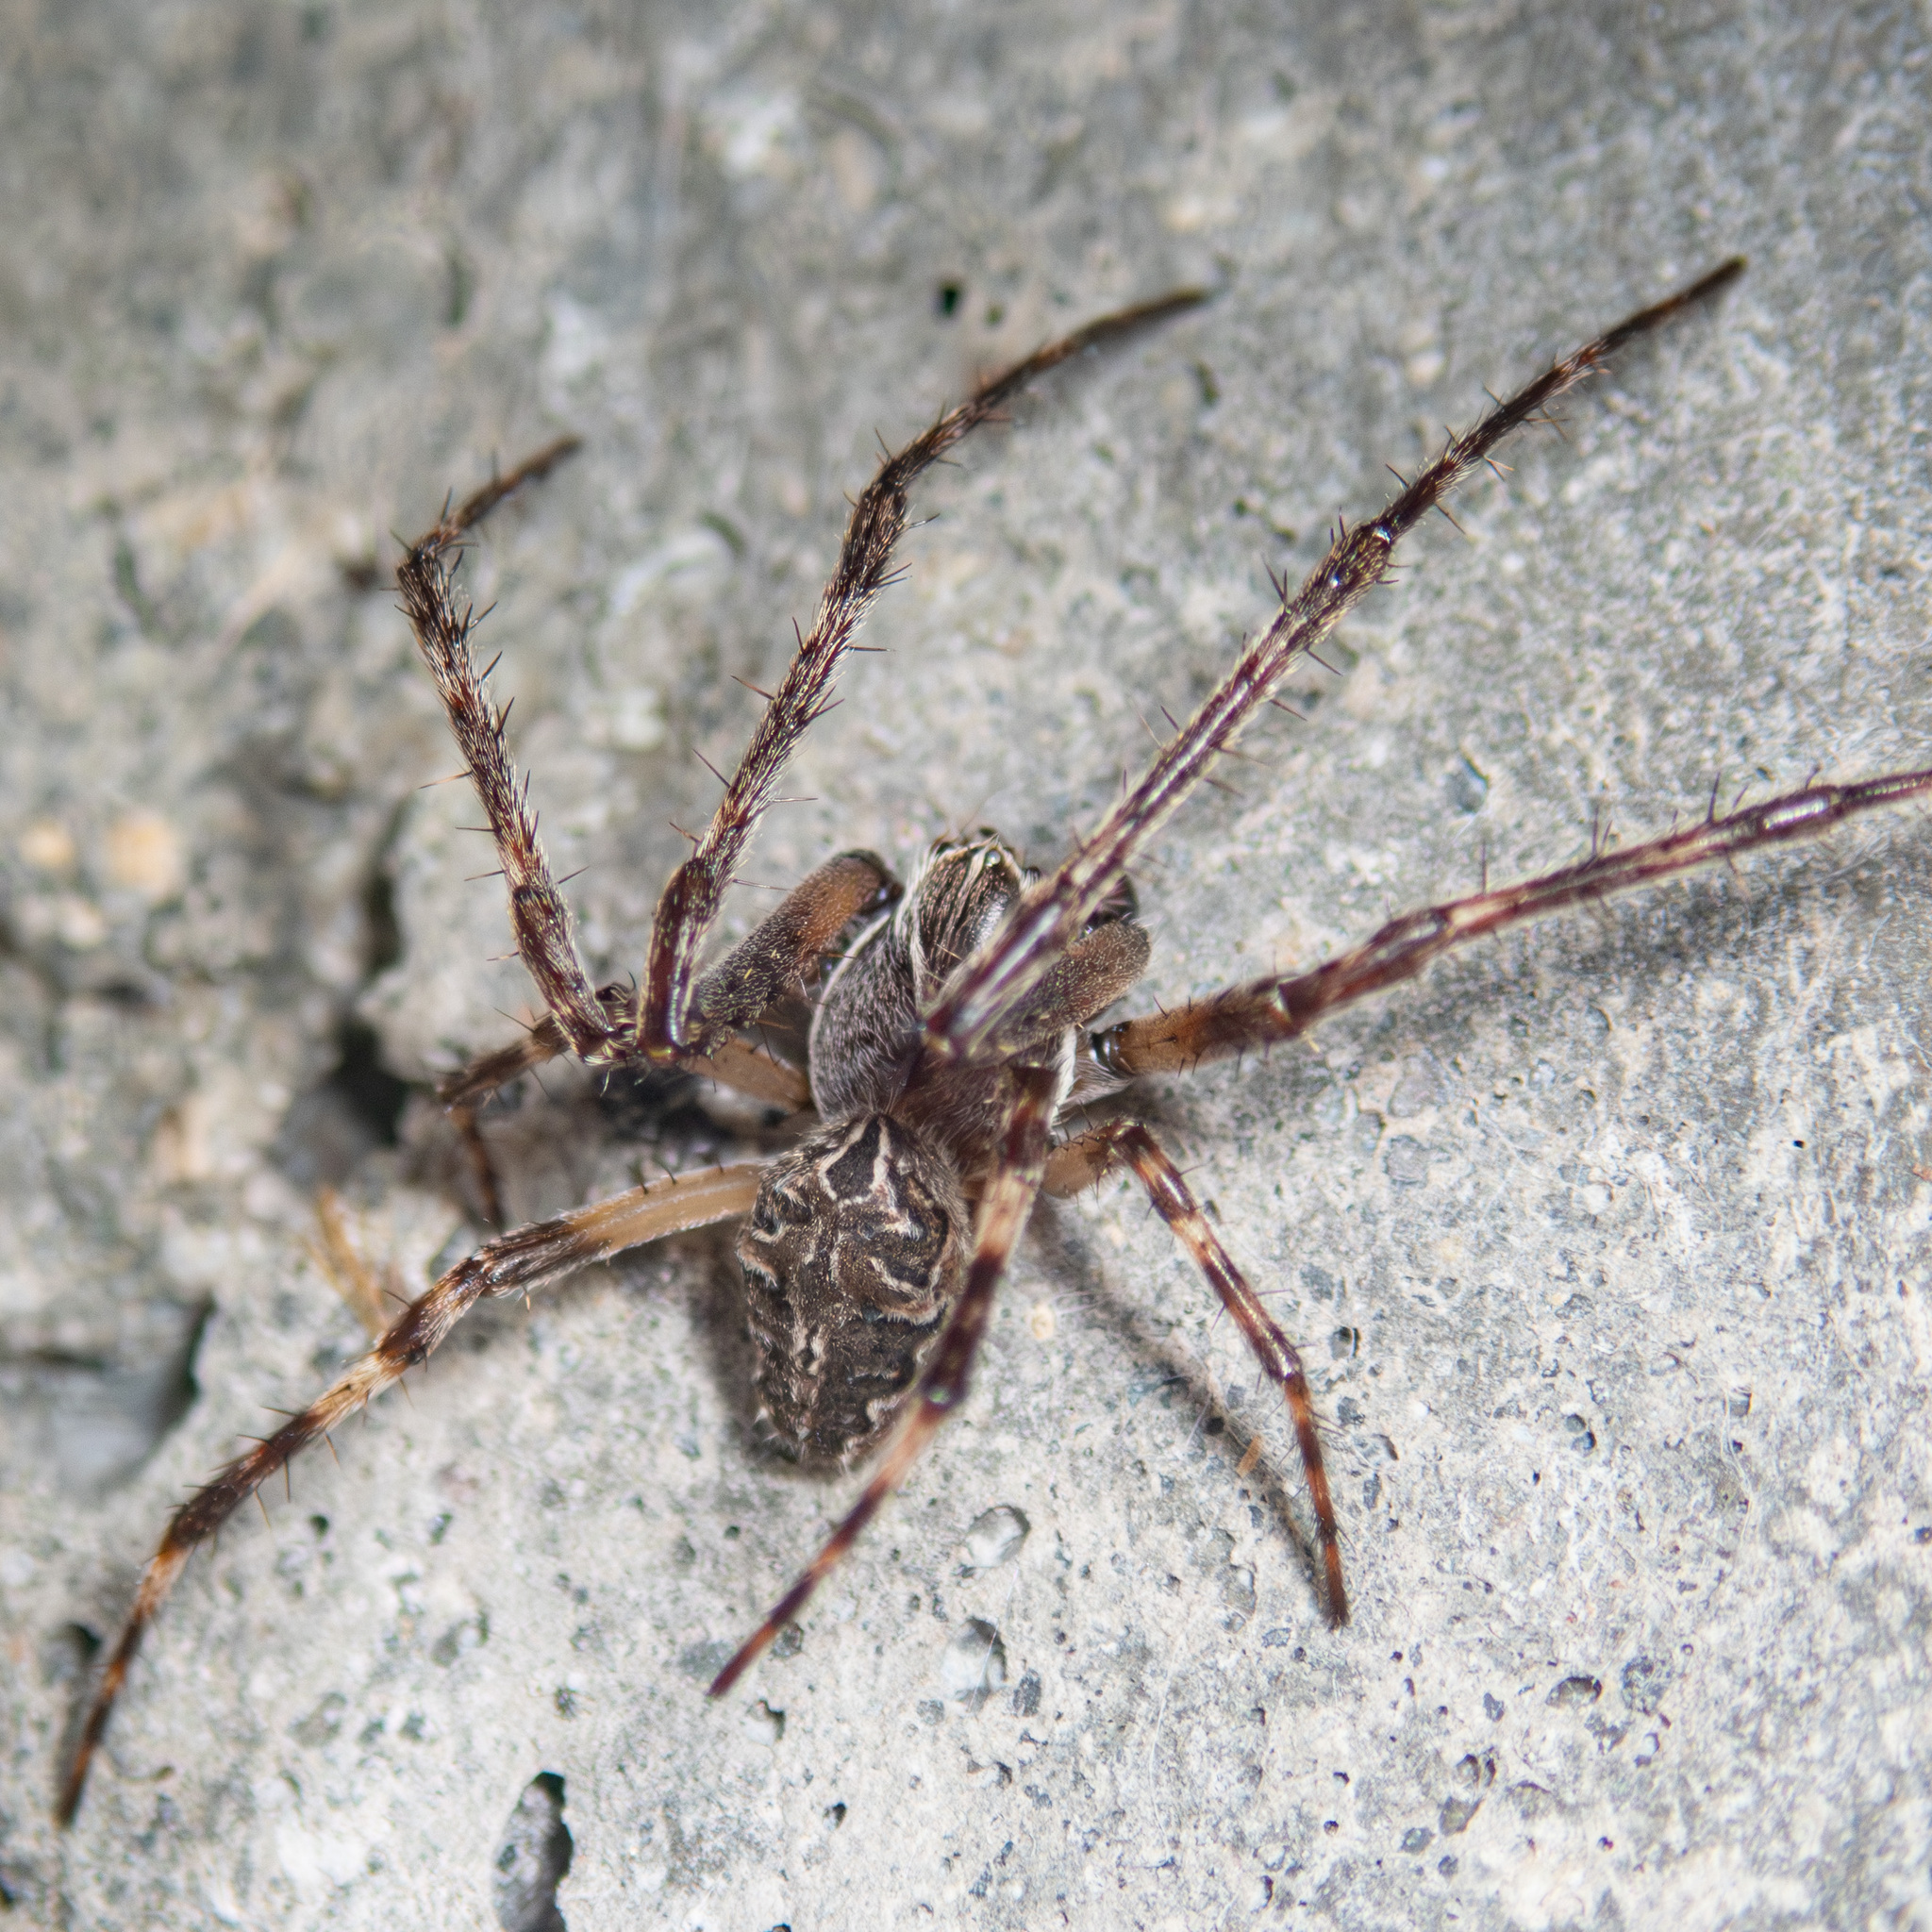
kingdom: Animalia
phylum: Arthropoda
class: Arachnida
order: Araneae
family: Araneidae
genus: Larinioides
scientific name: Larinioides sclopetarius
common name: Bridge orbweaver
